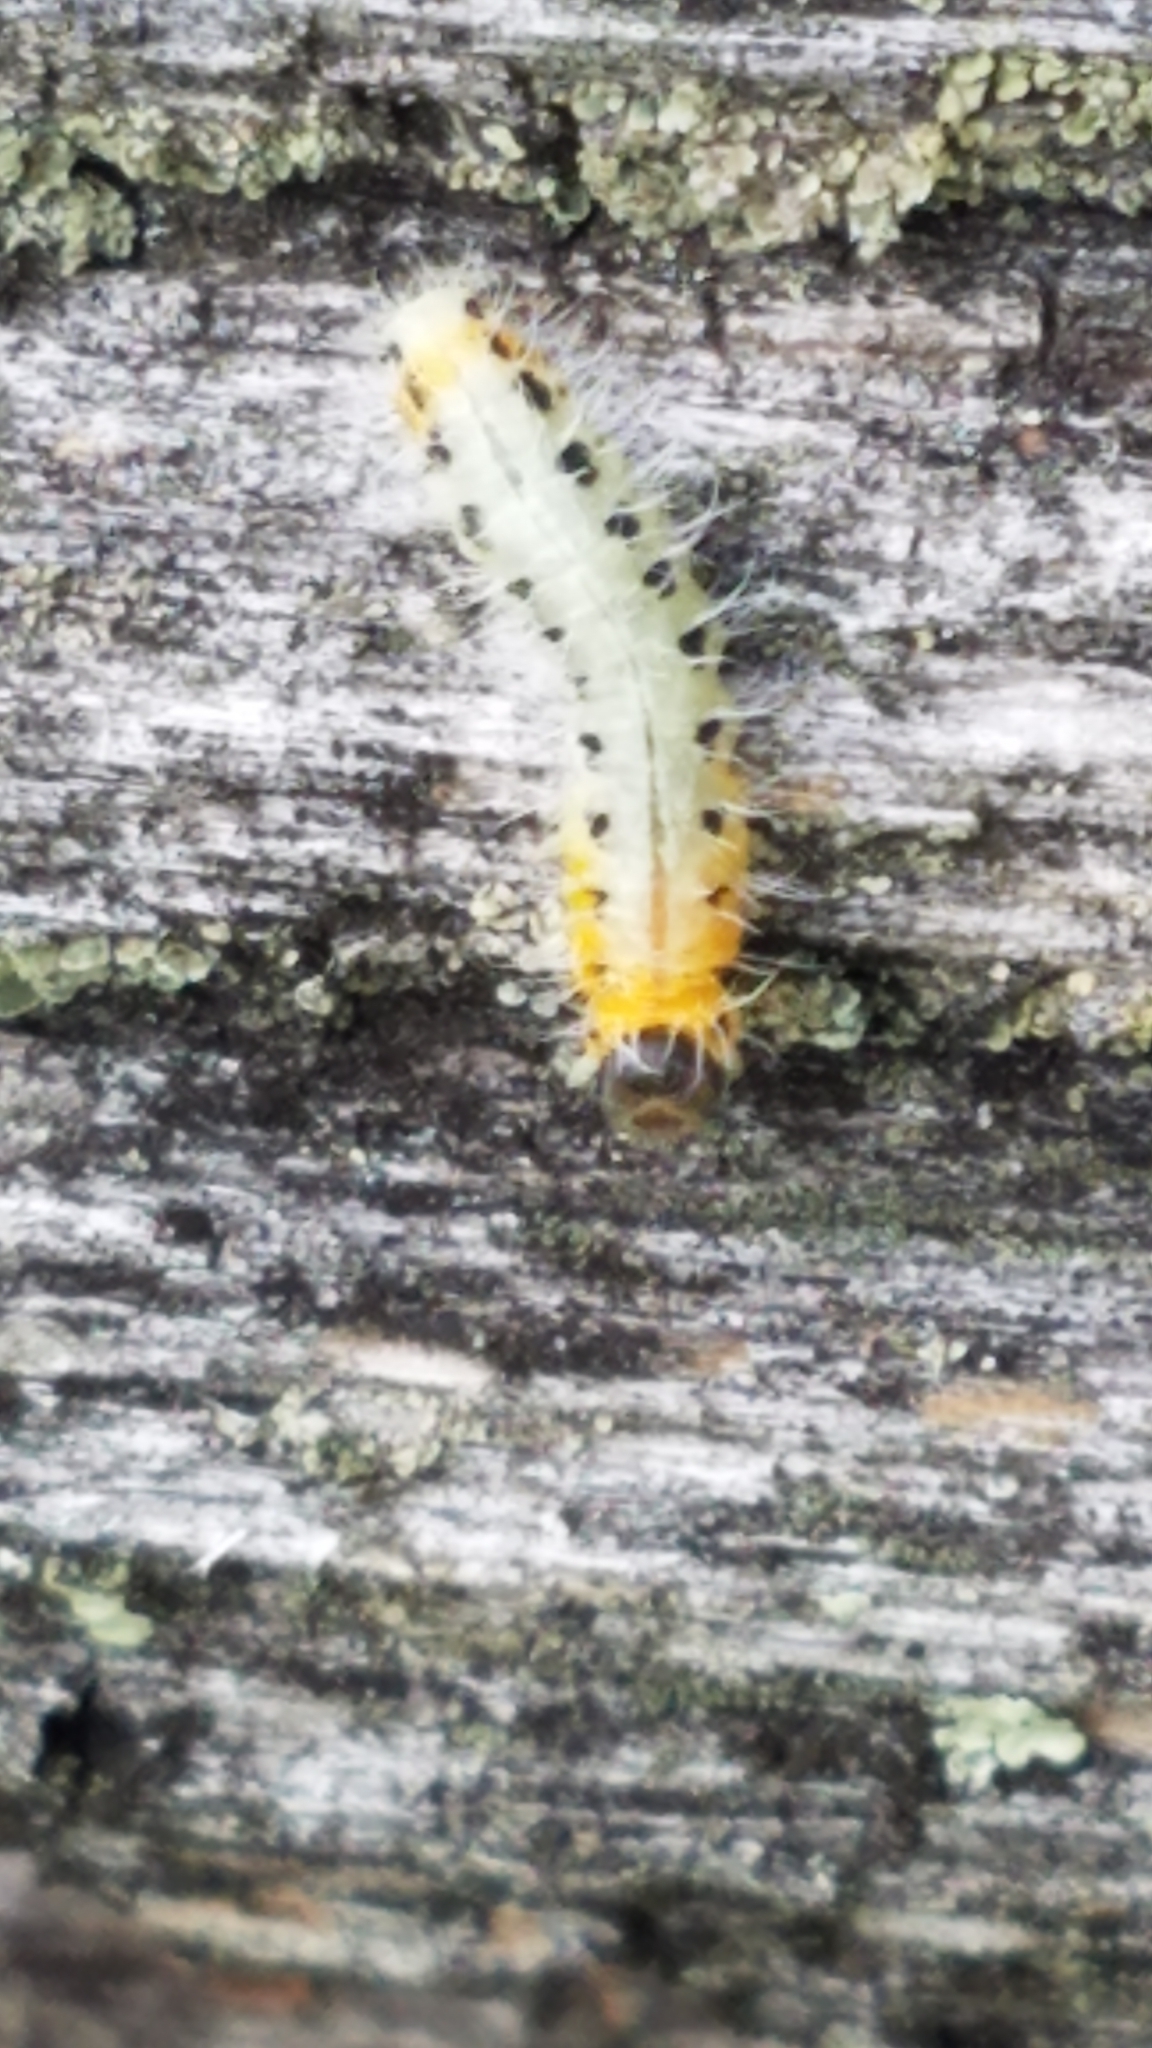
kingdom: Animalia
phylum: Arthropoda
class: Insecta
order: Hymenoptera
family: Tenthredinidae
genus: Cladius
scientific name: Cladius grandis
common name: Common sawfly
